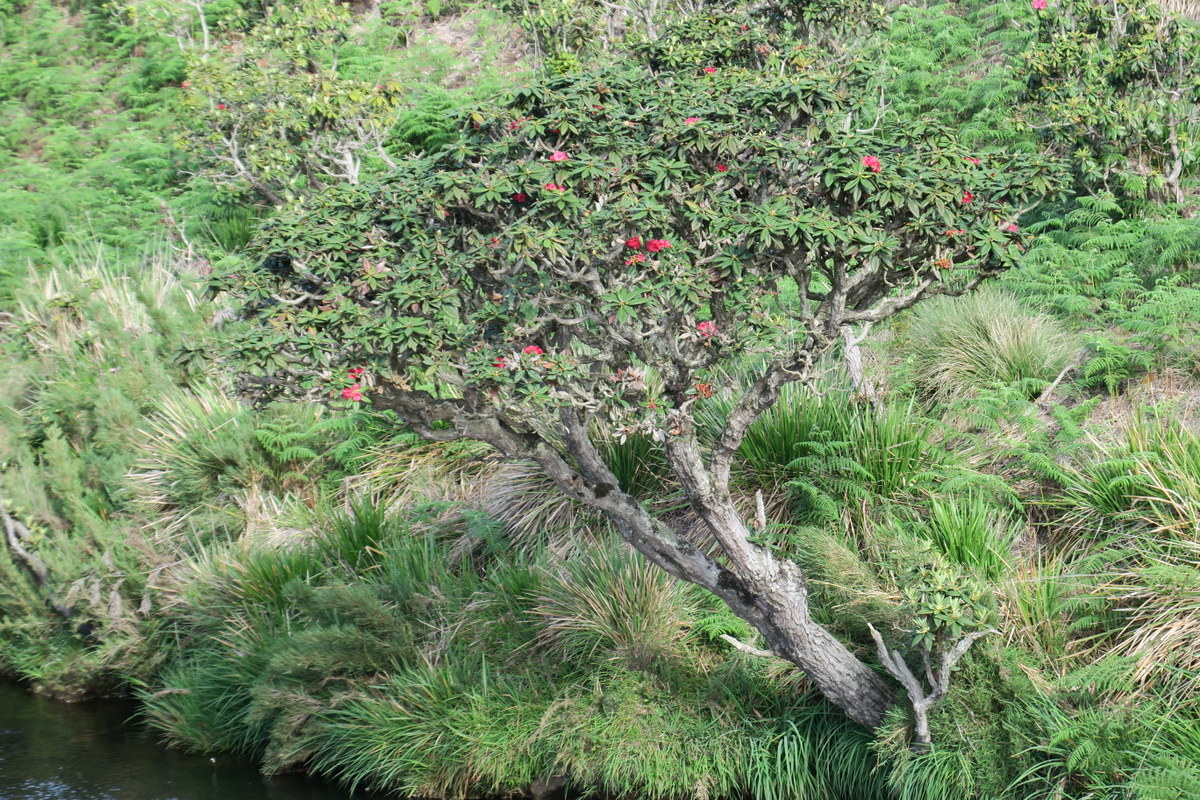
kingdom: Plantae
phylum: Tracheophyta
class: Magnoliopsida
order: Ericales
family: Ericaceae
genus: Rhododendron
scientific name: Rhododendron arboreum
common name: Tree rhododendron
